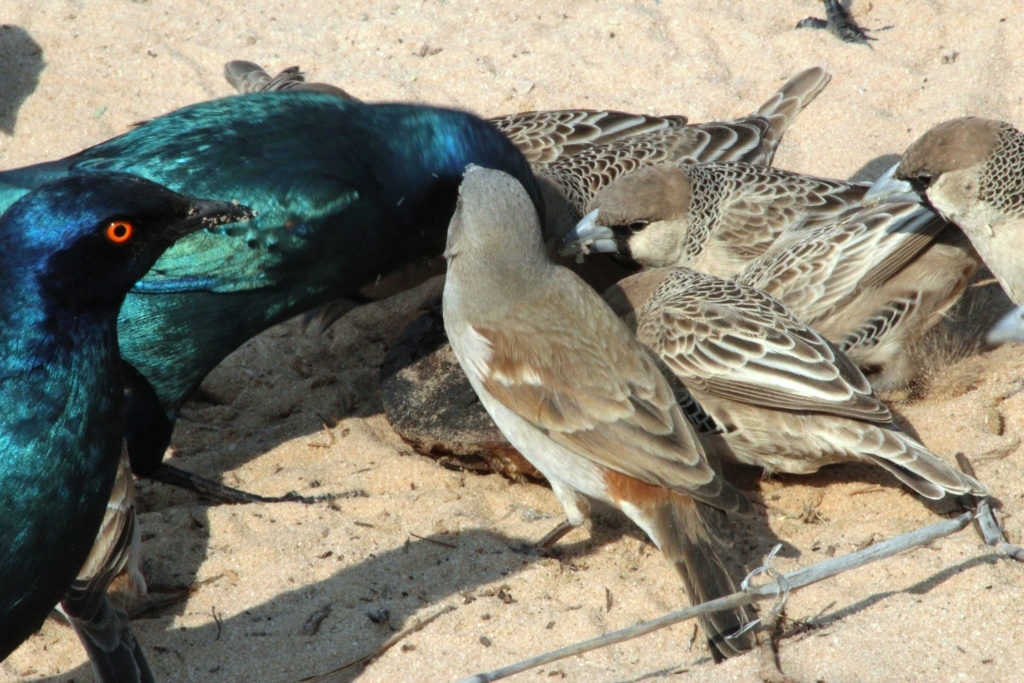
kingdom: Animalia
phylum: Chordata
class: Aves
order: Passeriformes
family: Passeridae
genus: Philetairus
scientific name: Philetairus socius
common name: Sociable weaver
